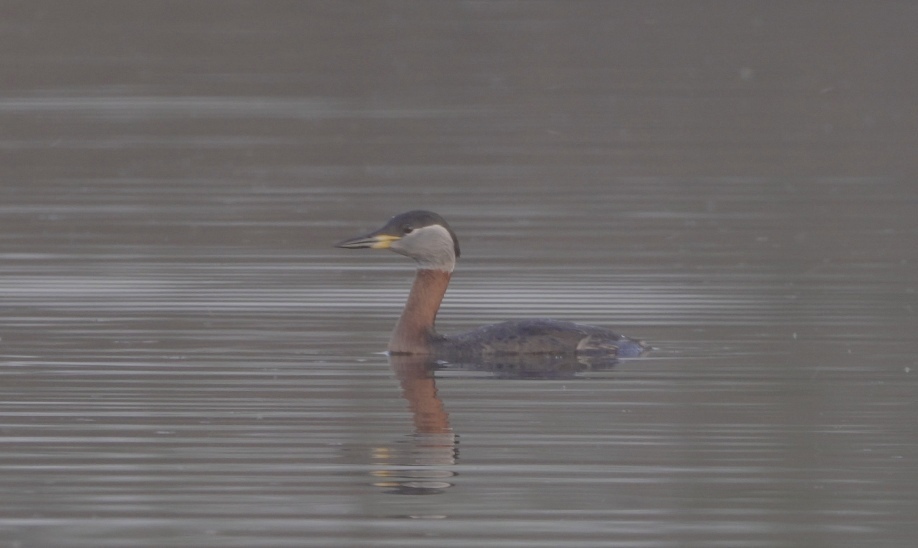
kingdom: Animalia
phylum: Chordata
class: Aves
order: Podicipediformes
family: Podicipedidae
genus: Podiceps
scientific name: Podiceps grisegena
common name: Red-necked grebe
